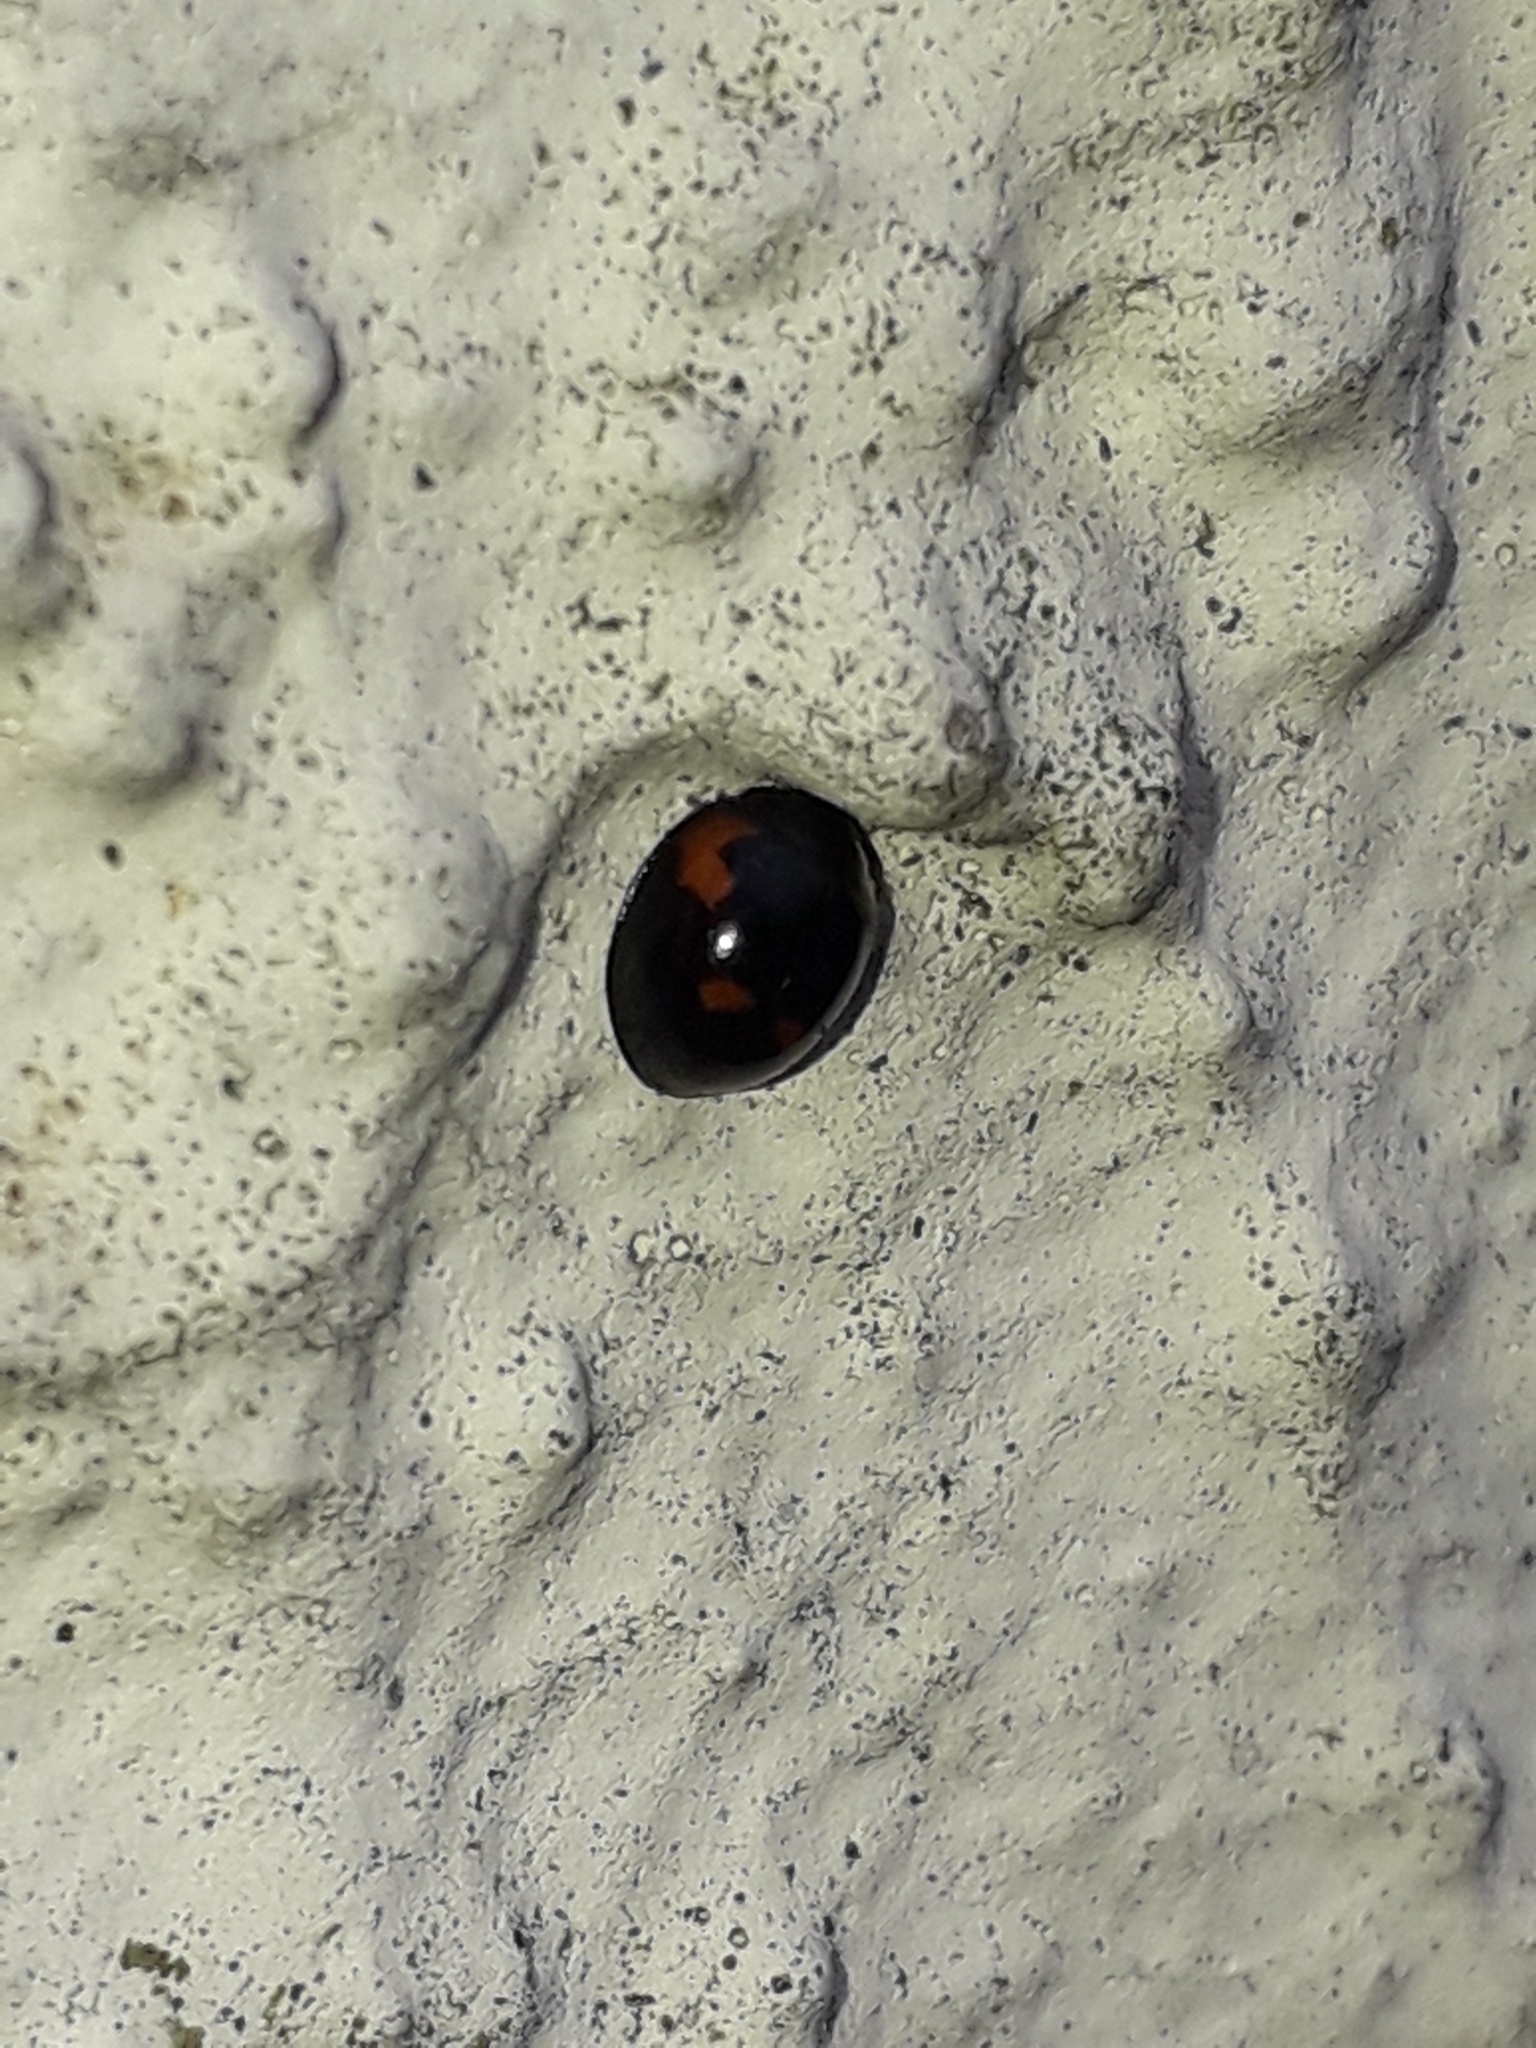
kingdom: Animalia
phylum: Arthropoda
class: Insecta
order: Coleoptera
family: Coccinellidae
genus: Brumus
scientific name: Brumus quadripustulatus
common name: Ladybird beetle
